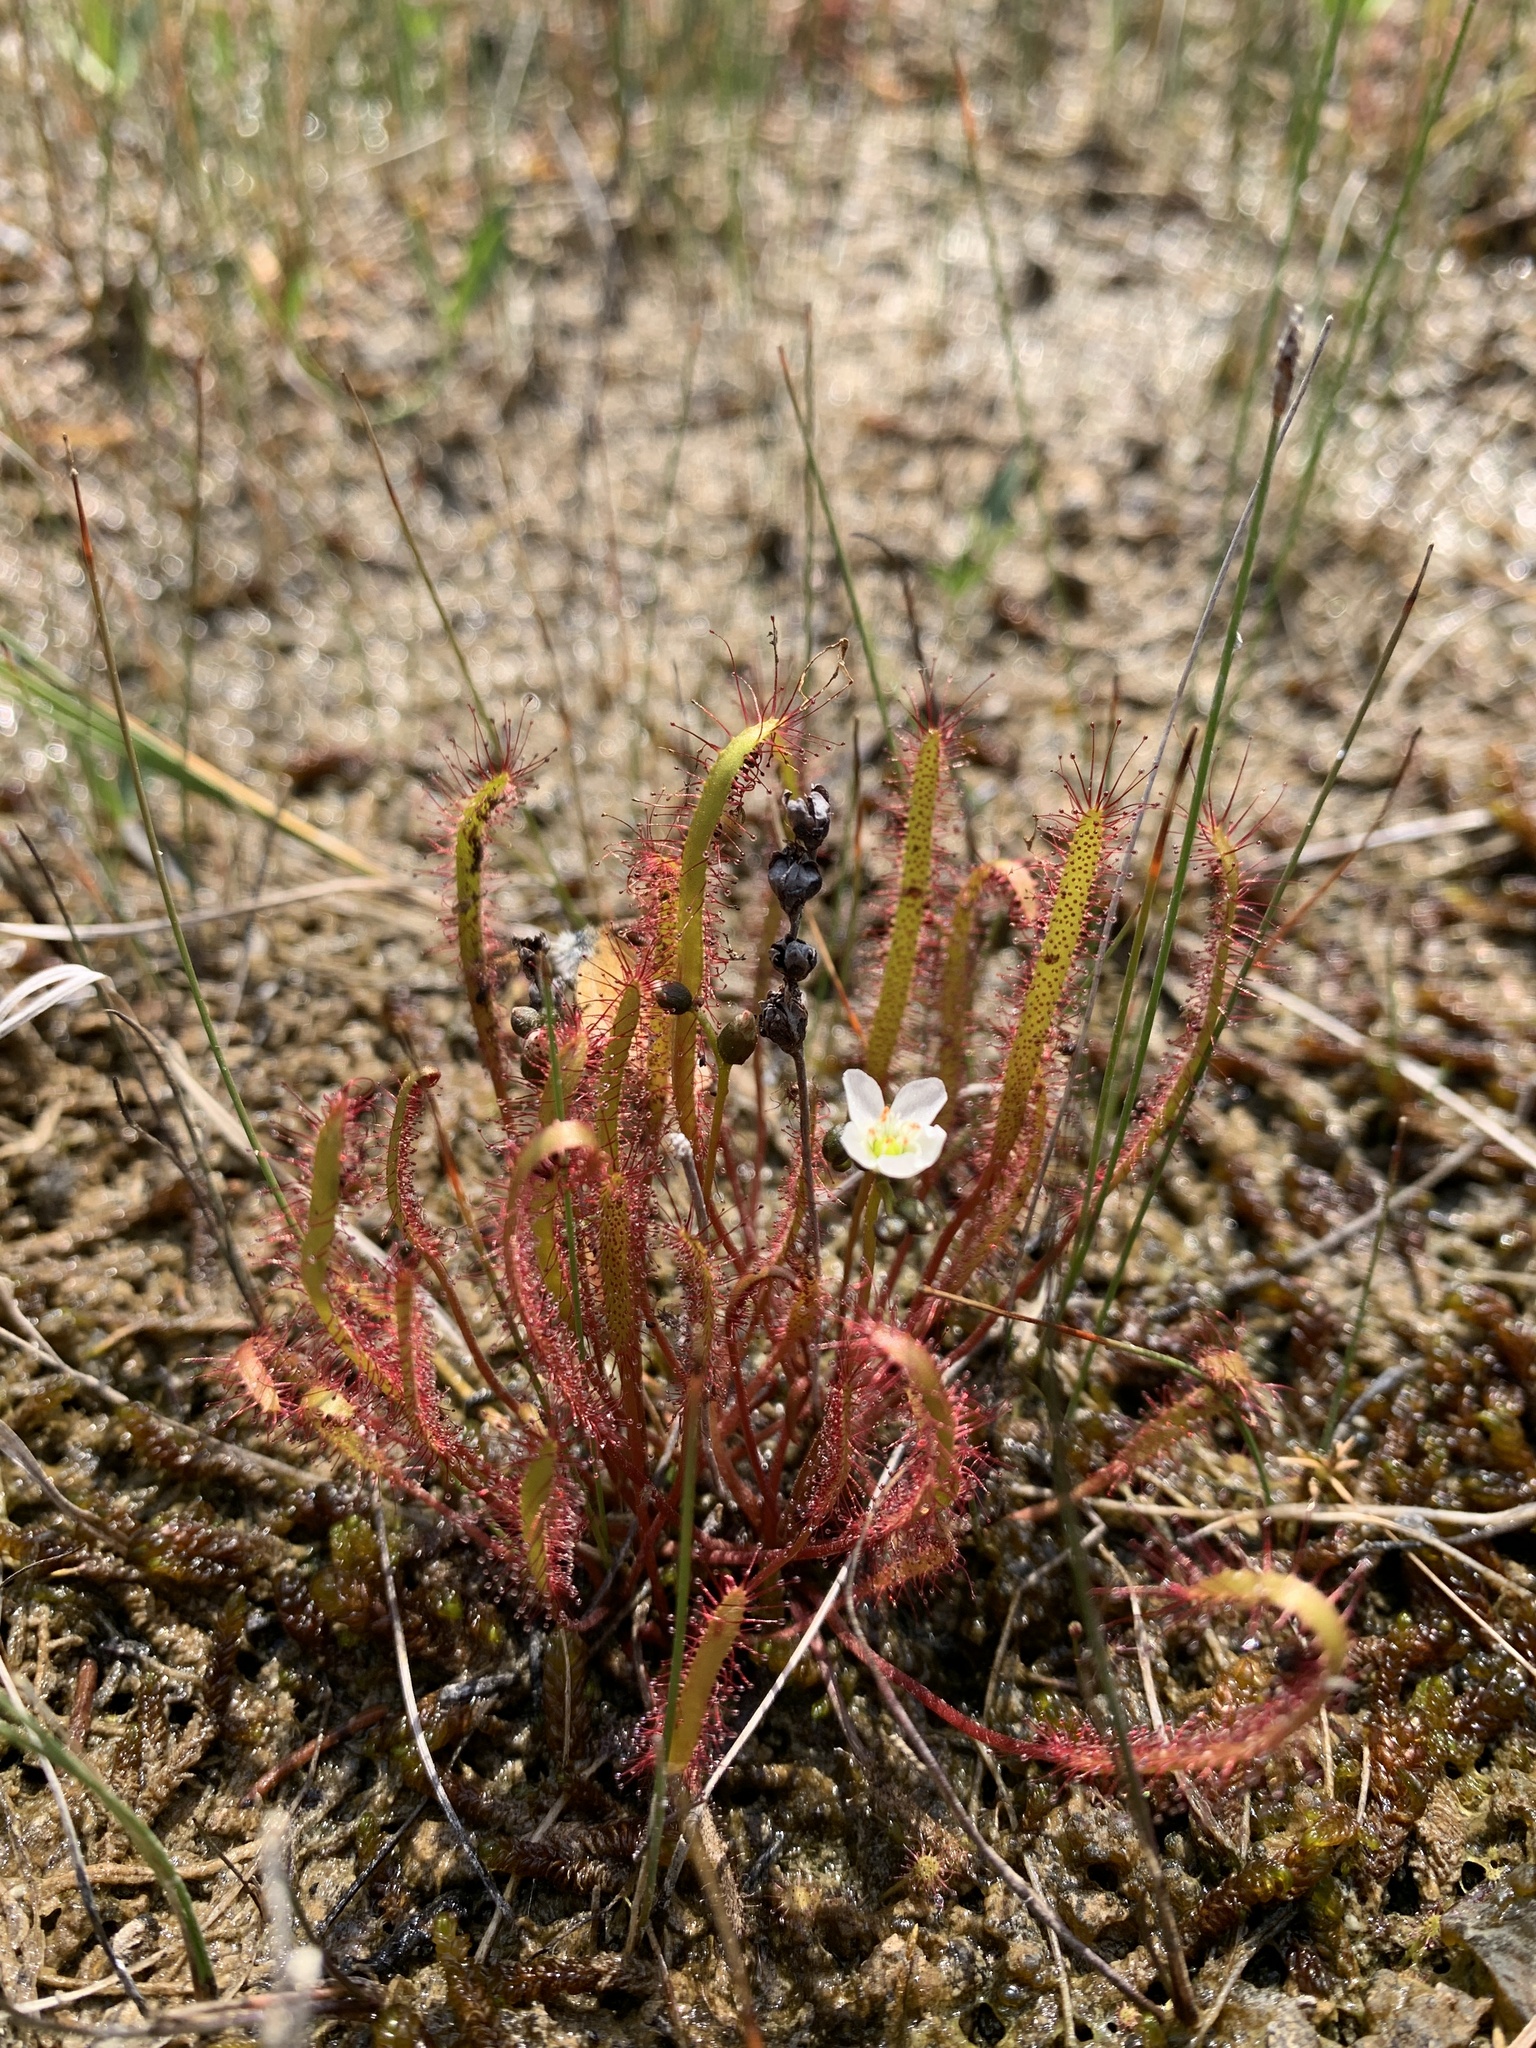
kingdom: Plantae
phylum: Tracheophyta
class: Magnoliopsida
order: Caryophyllales
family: Droseraceae
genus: Drosera
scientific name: Drosera linearis
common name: Linear-leaved sundew
